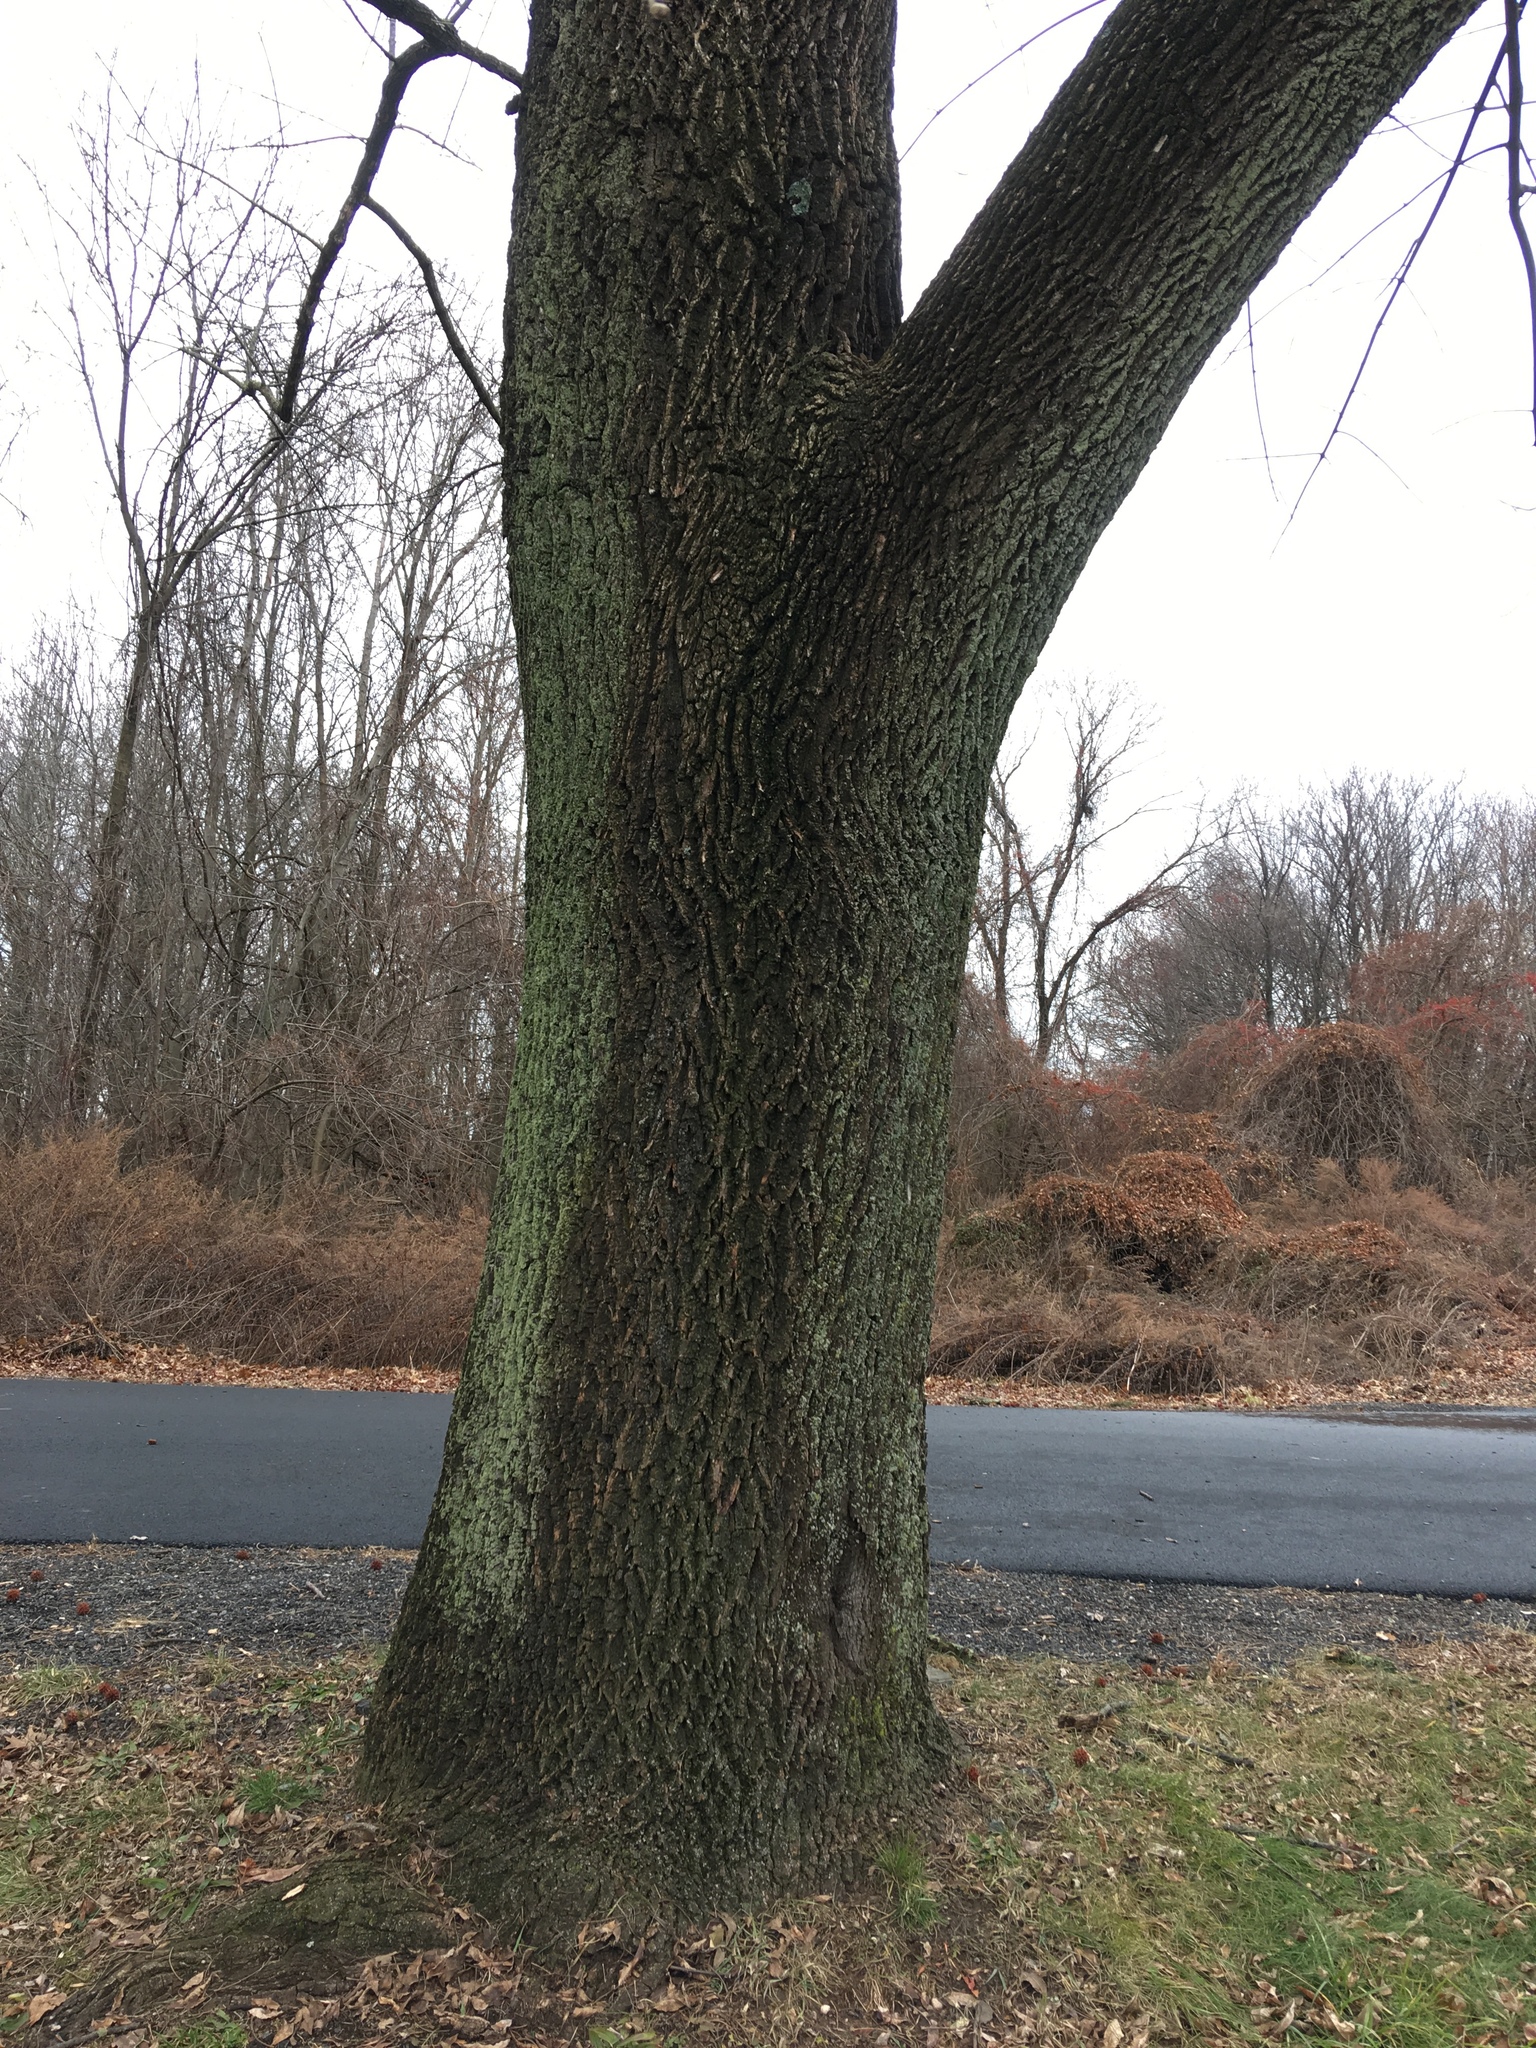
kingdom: Plantae
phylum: Tracheophyta
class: Magnoliopsida
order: Lamiales
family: Oleaceae
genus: Fraxinus
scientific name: Fraxinus pennsylvanica
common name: Green ash
